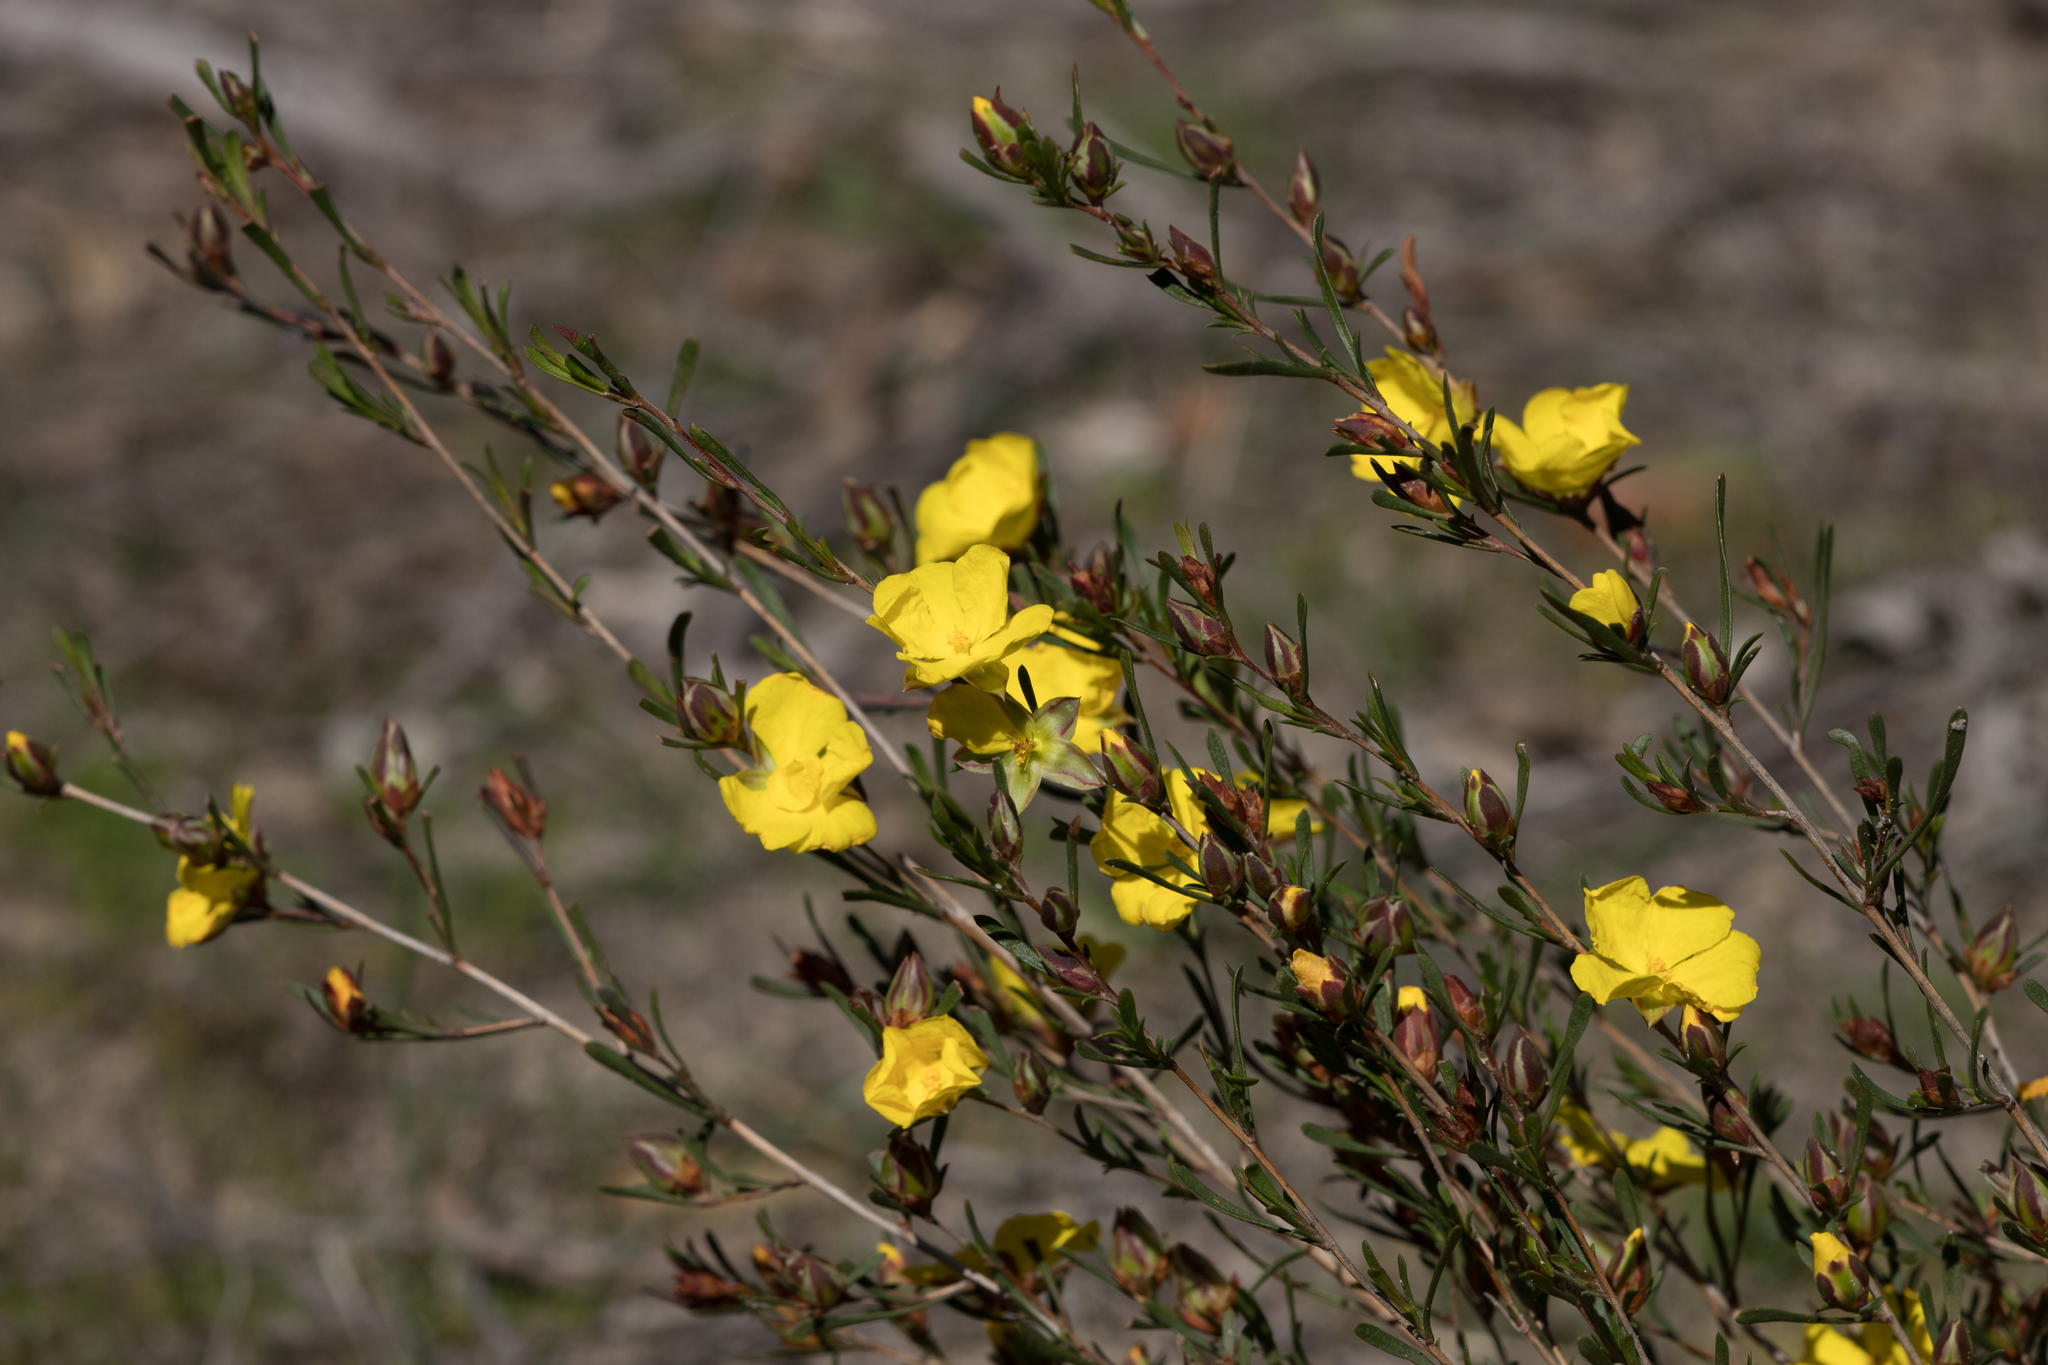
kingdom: Plantae
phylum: Tracheophyta
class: Magnoliopsida
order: Dilleniales
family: Dilleniaceae
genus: Hibbertia
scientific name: Hibbertia virgata
